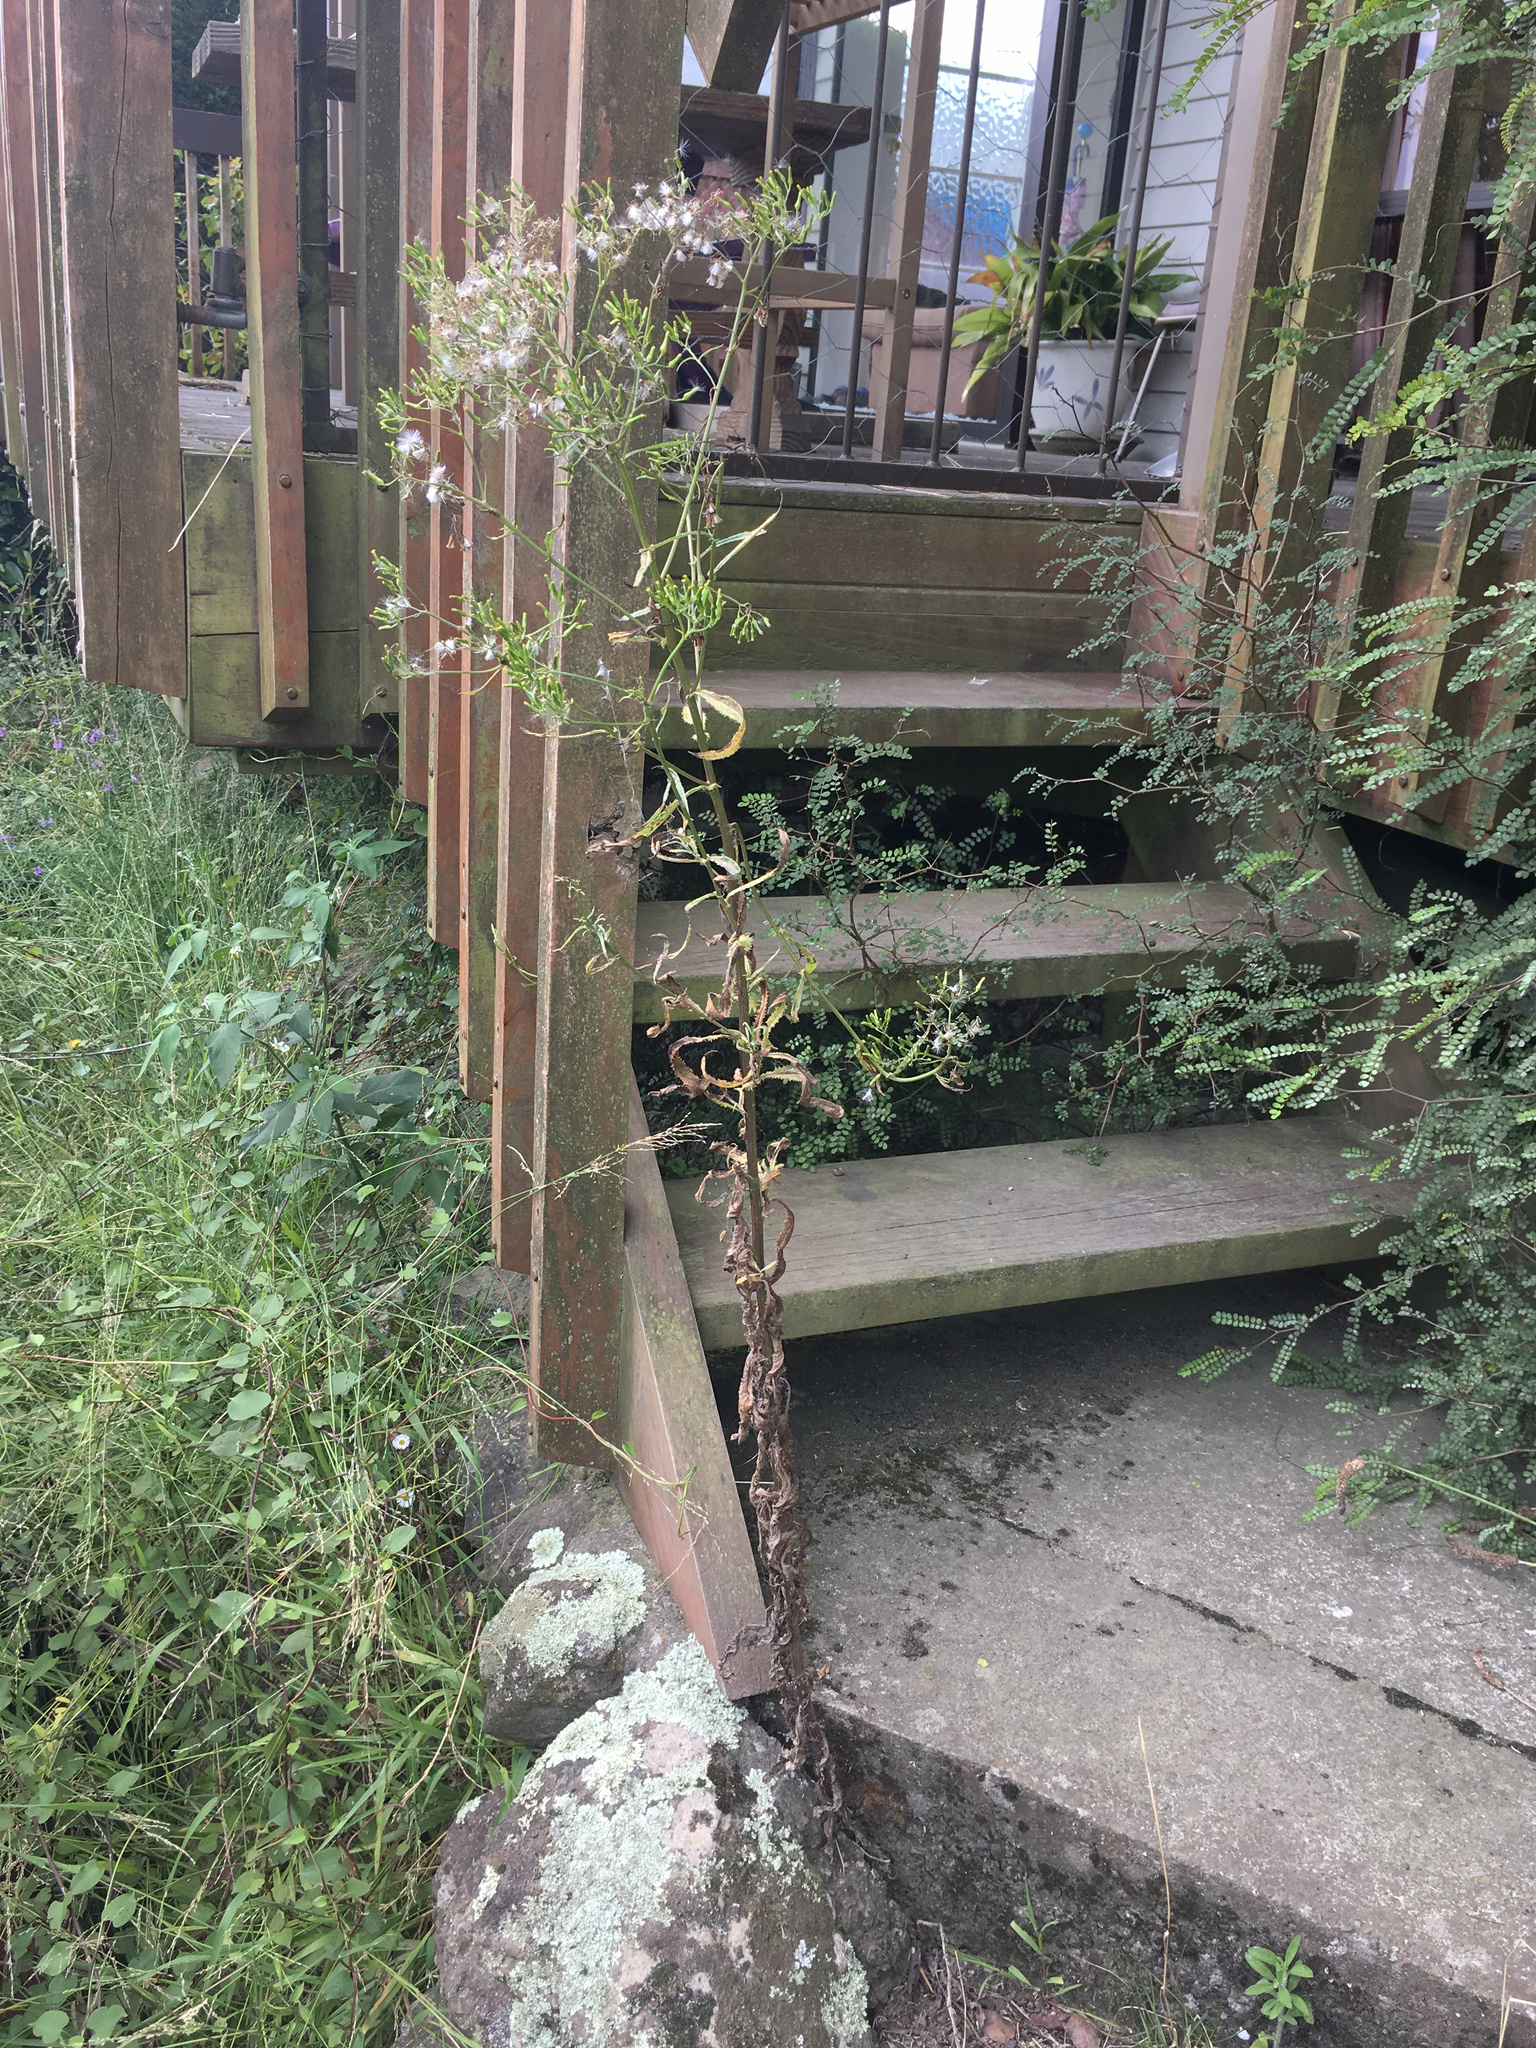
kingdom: Plantae
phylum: Tracheophyta
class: Magnoliopsida
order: Asterales
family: Asteraceae
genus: Senecio
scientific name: Senecio minimus
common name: Toothed fireweed
